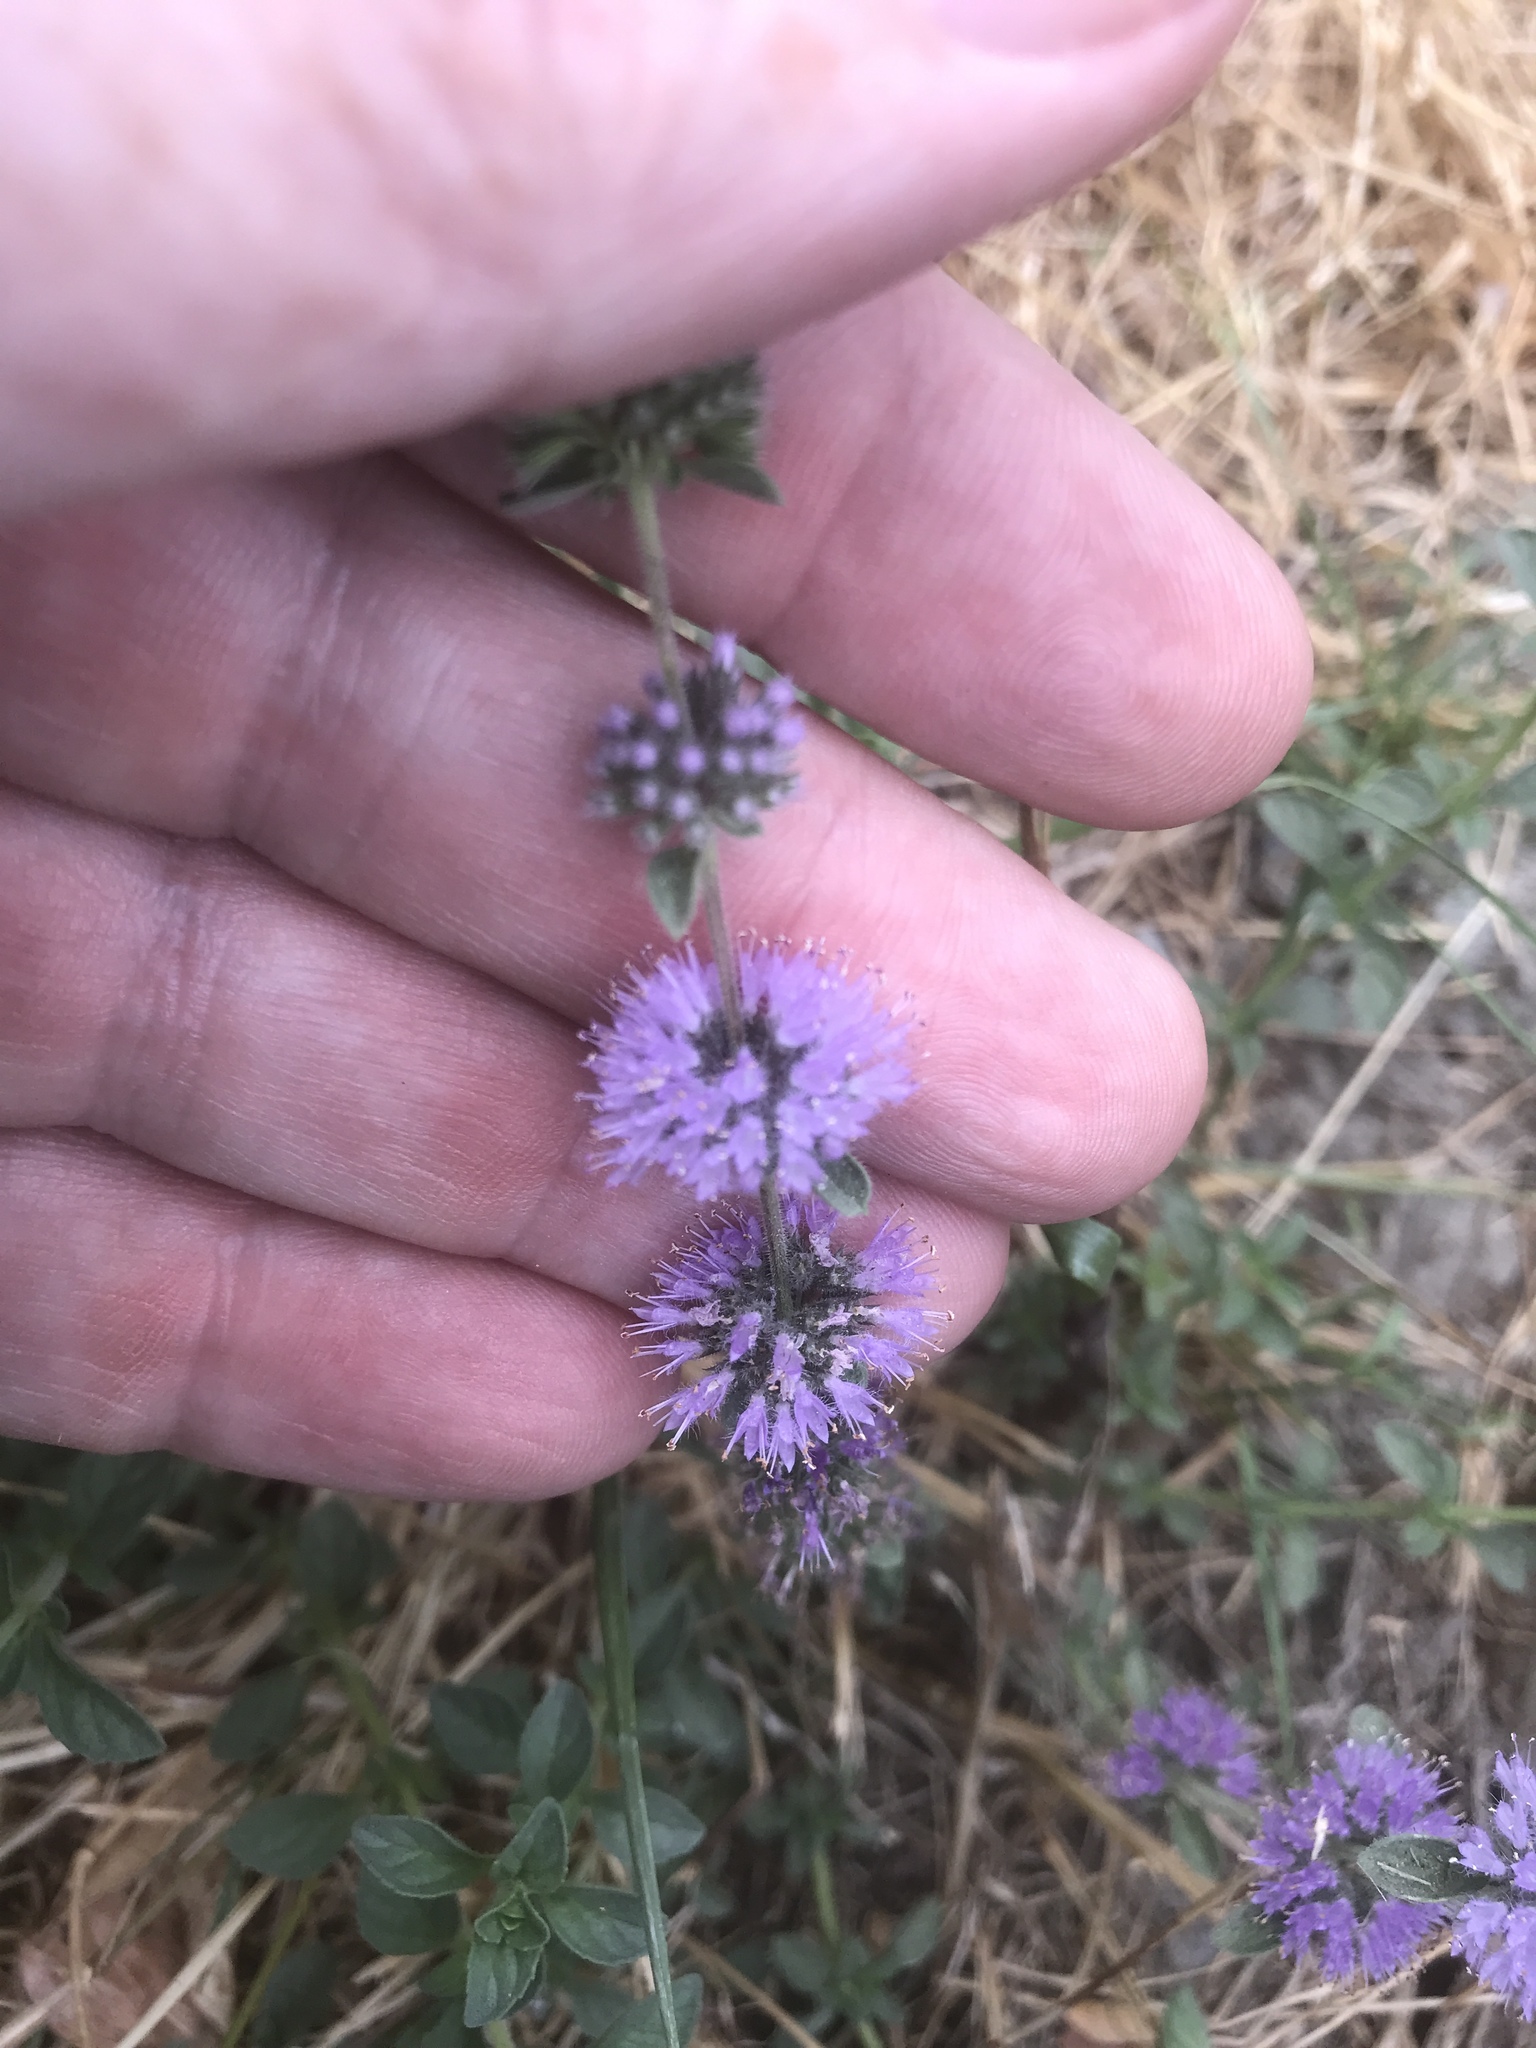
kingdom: Plantae
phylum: Tracheophyta
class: Magnoliopsida
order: Lamiales
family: Lamiaceae
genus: Mentha
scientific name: Mentha pulegium
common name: Pennyroyal
